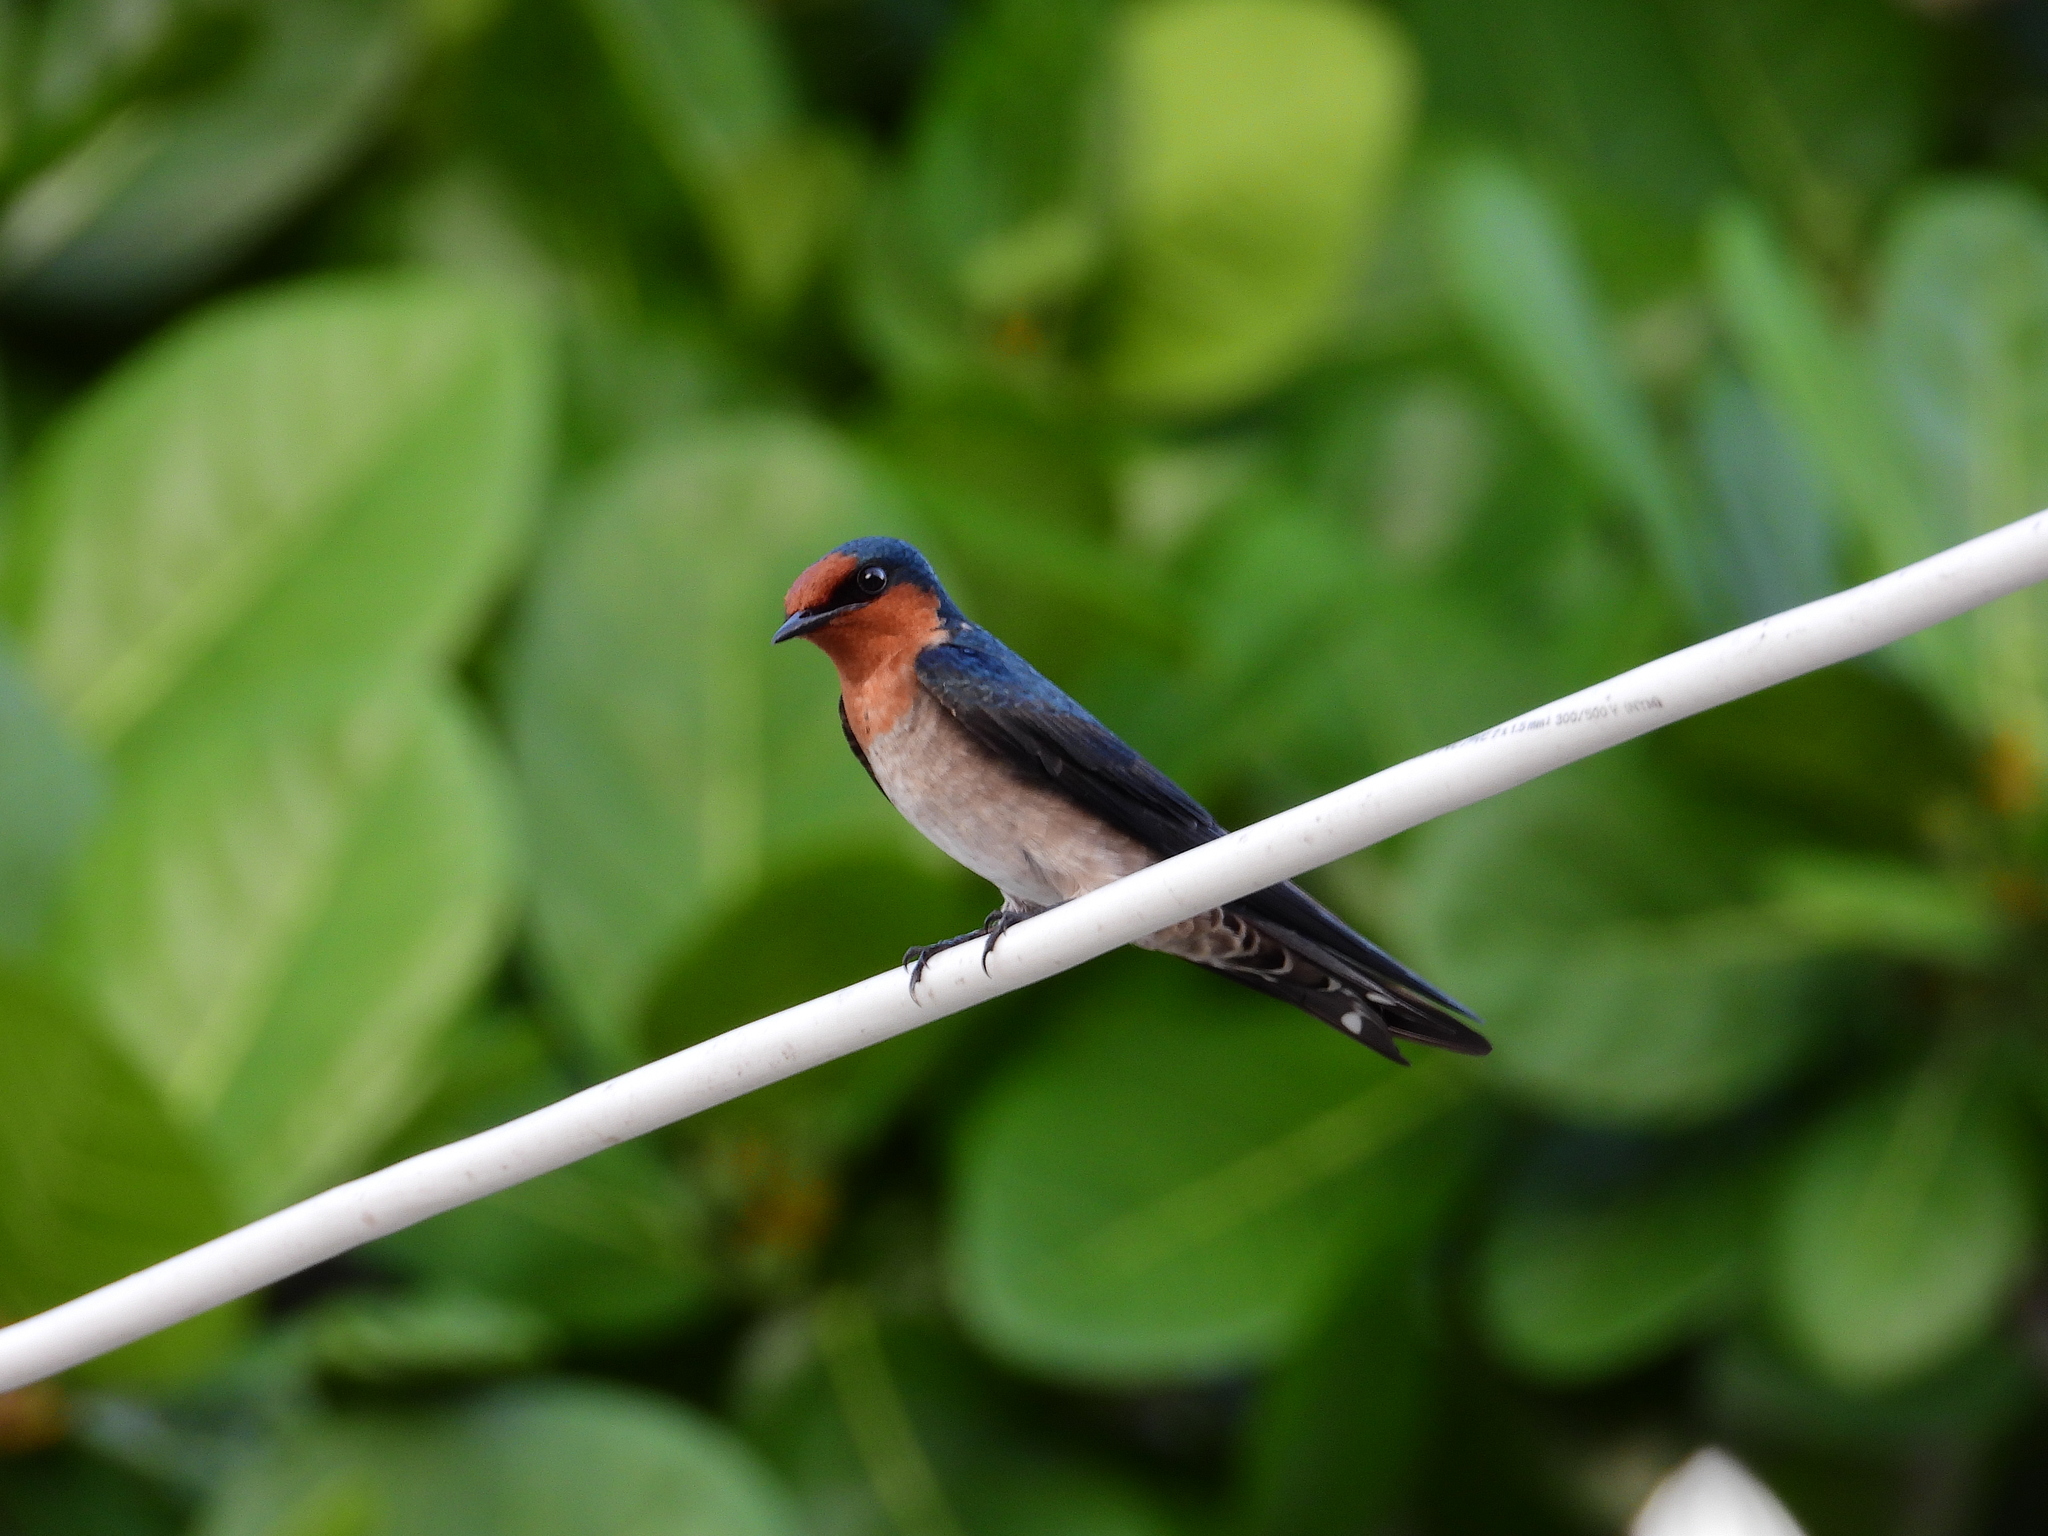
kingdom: Animalia
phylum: Chordata
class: Aves
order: Passeriformes
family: Hirundinidae
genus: Hirundo
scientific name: Hirundo tahitica
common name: Pacific swallow
